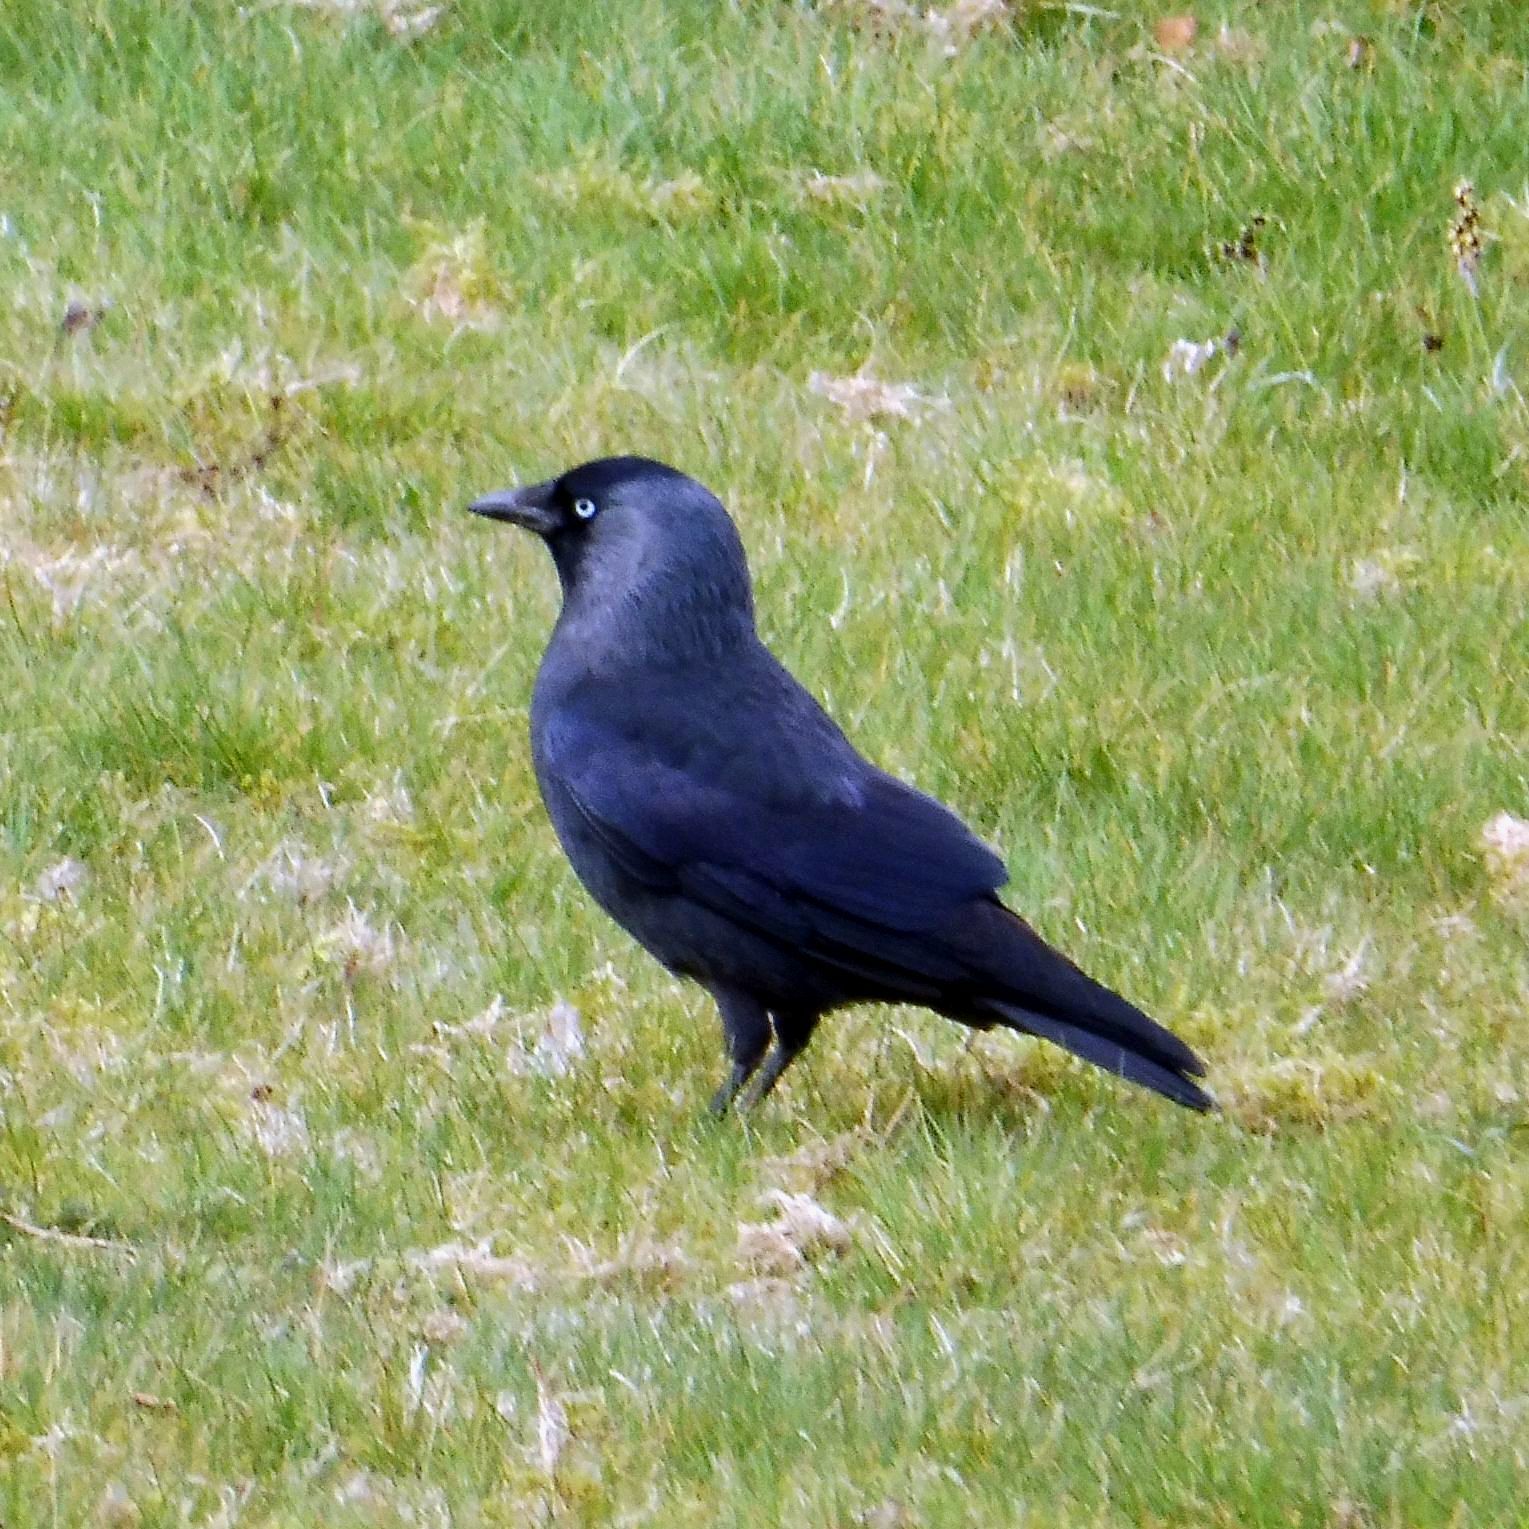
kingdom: Animalia
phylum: Chordata
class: Aves
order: Passeriformes
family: Corvidae
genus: Coloeus
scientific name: Coloeus monedula
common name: Western jackdaw
